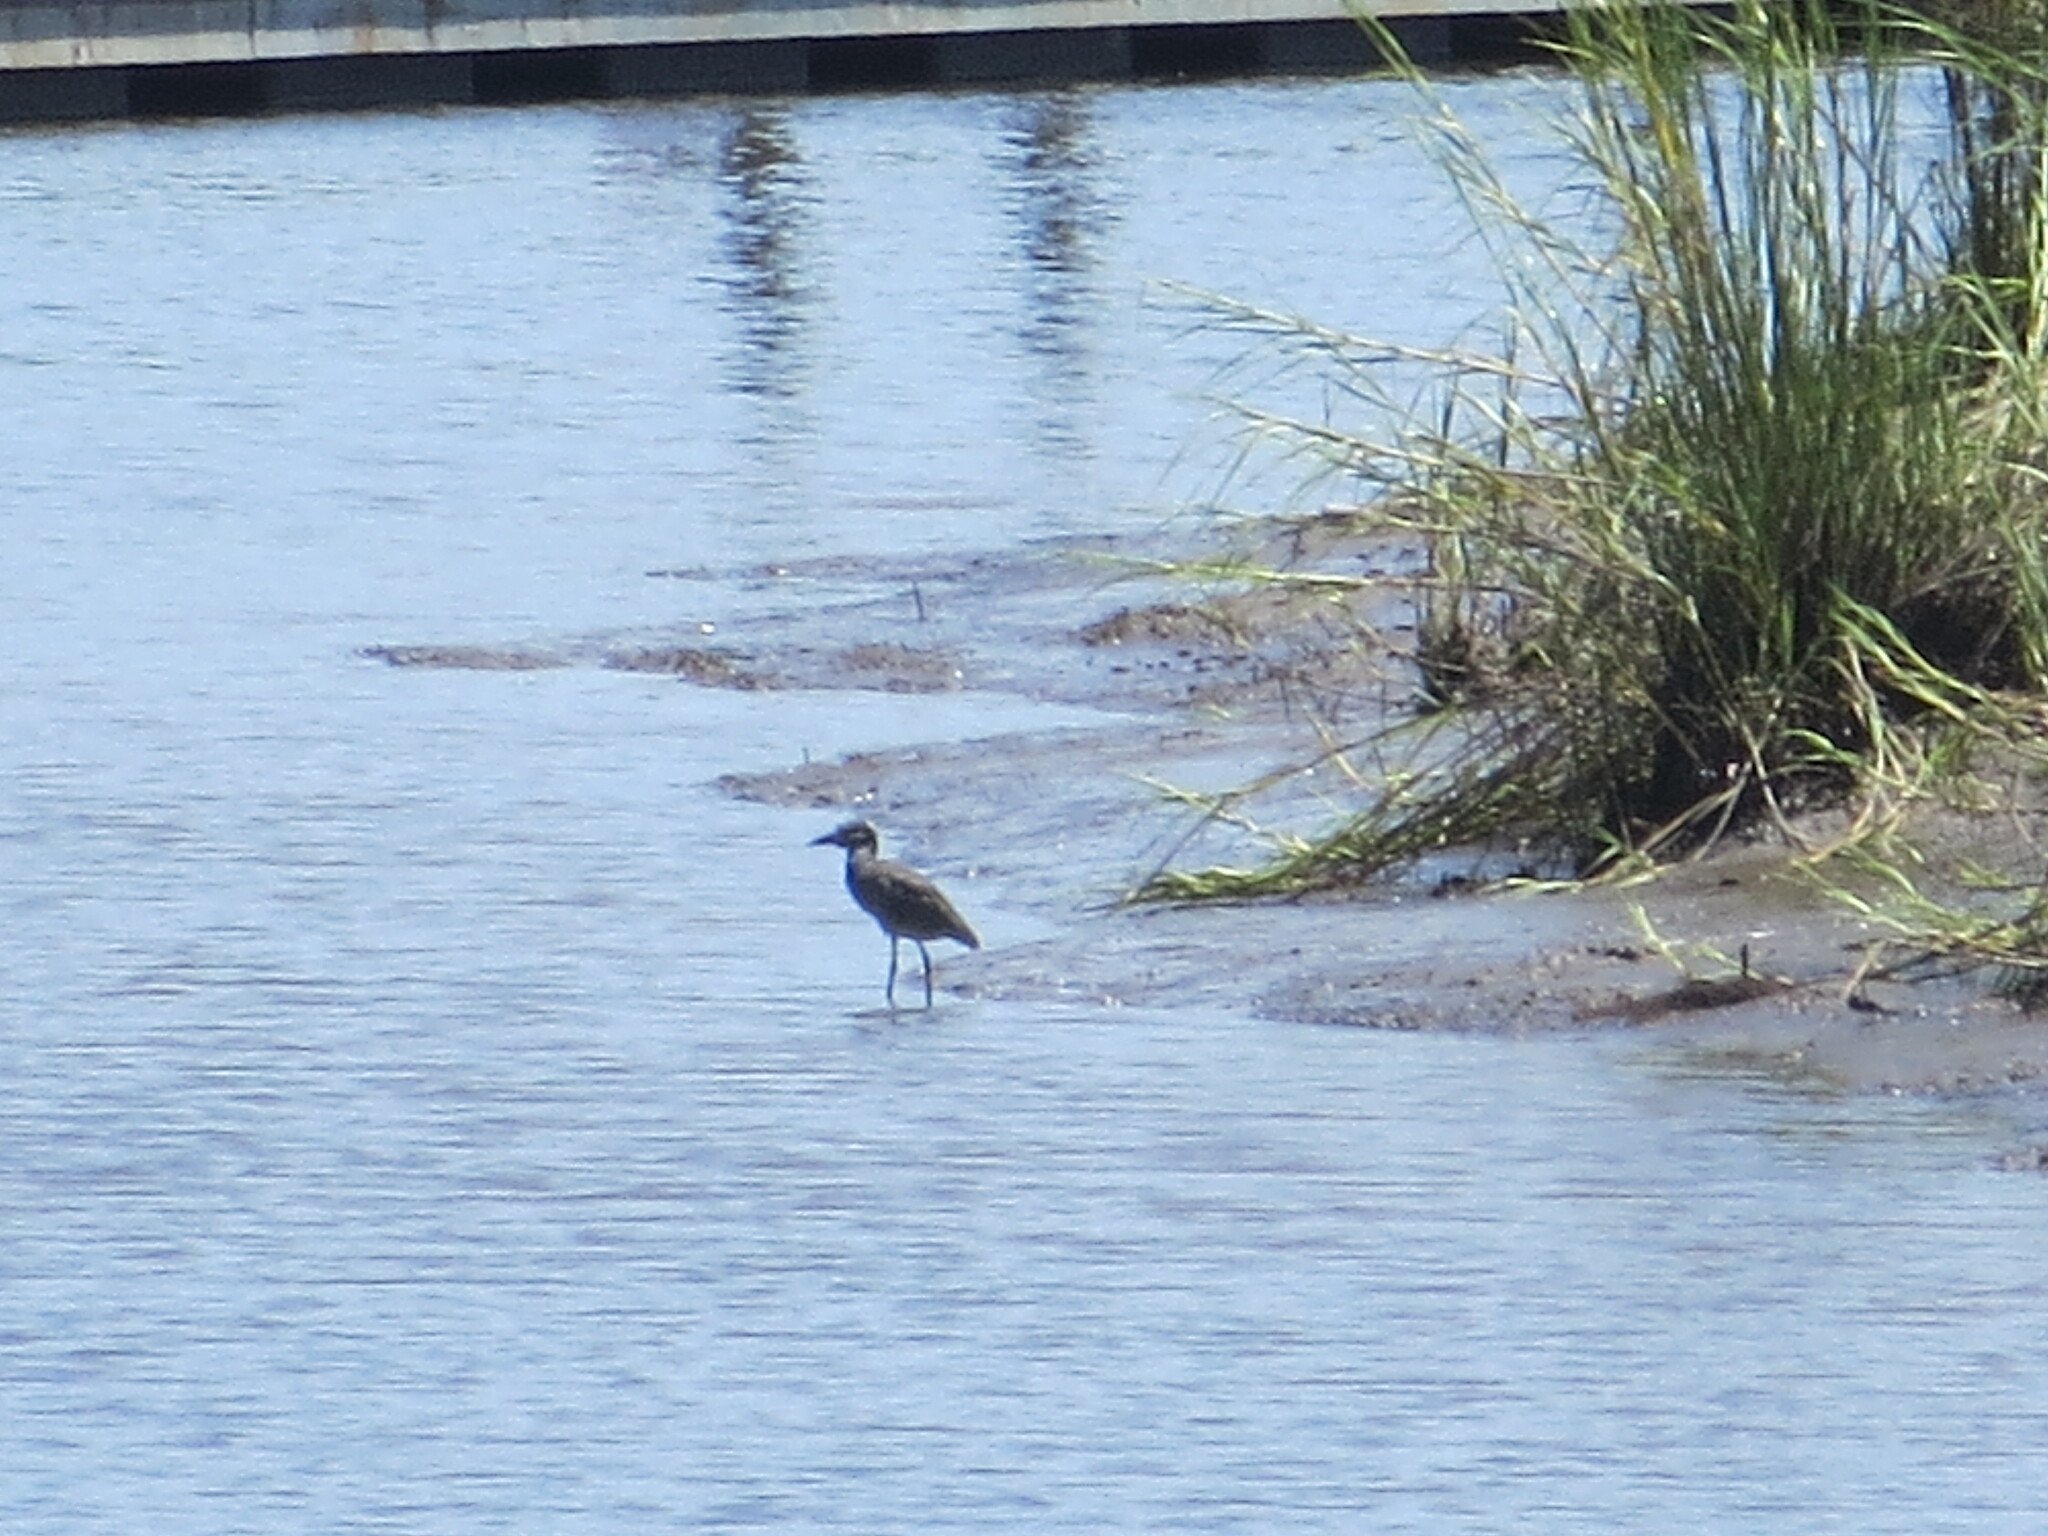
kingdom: Animalia
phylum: Chordata
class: Aves
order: Pelecaniformes
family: Ardeidae
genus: Nyctanassa
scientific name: Nyctanassa violacea
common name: Yellow-crowned night heron
